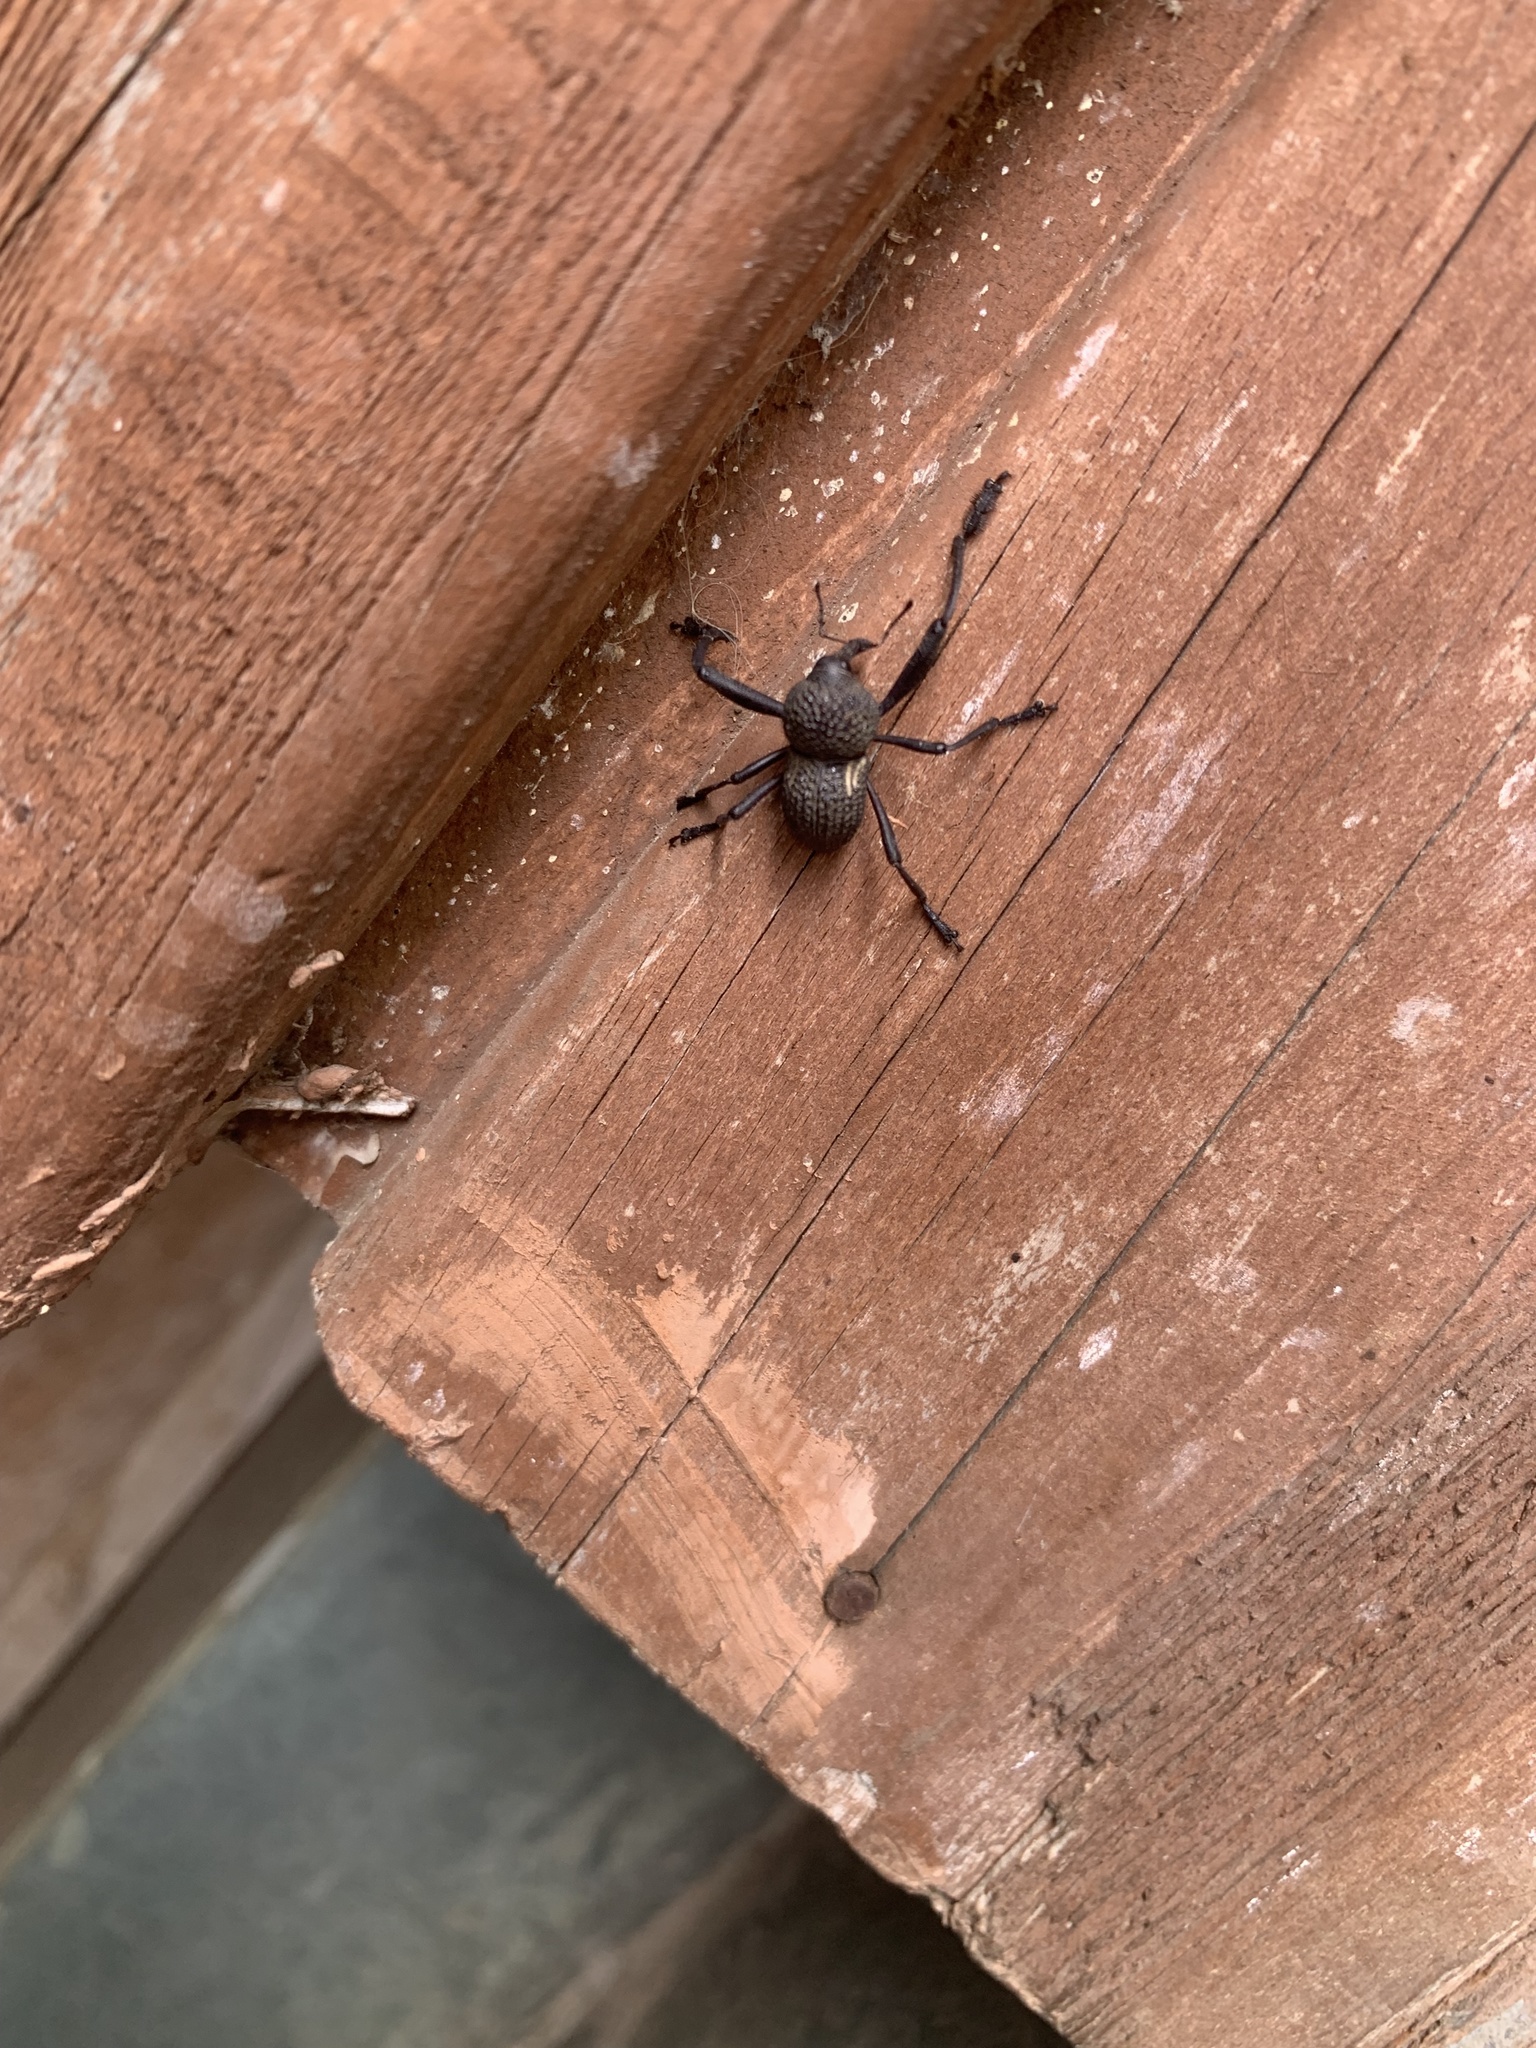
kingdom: Animalia
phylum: Arthropoda
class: Insecta
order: Coleoptera
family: Curculionidae
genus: Rhyephenes
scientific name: Rhyephenes humeralis
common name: Araè±ita chilena del pino
